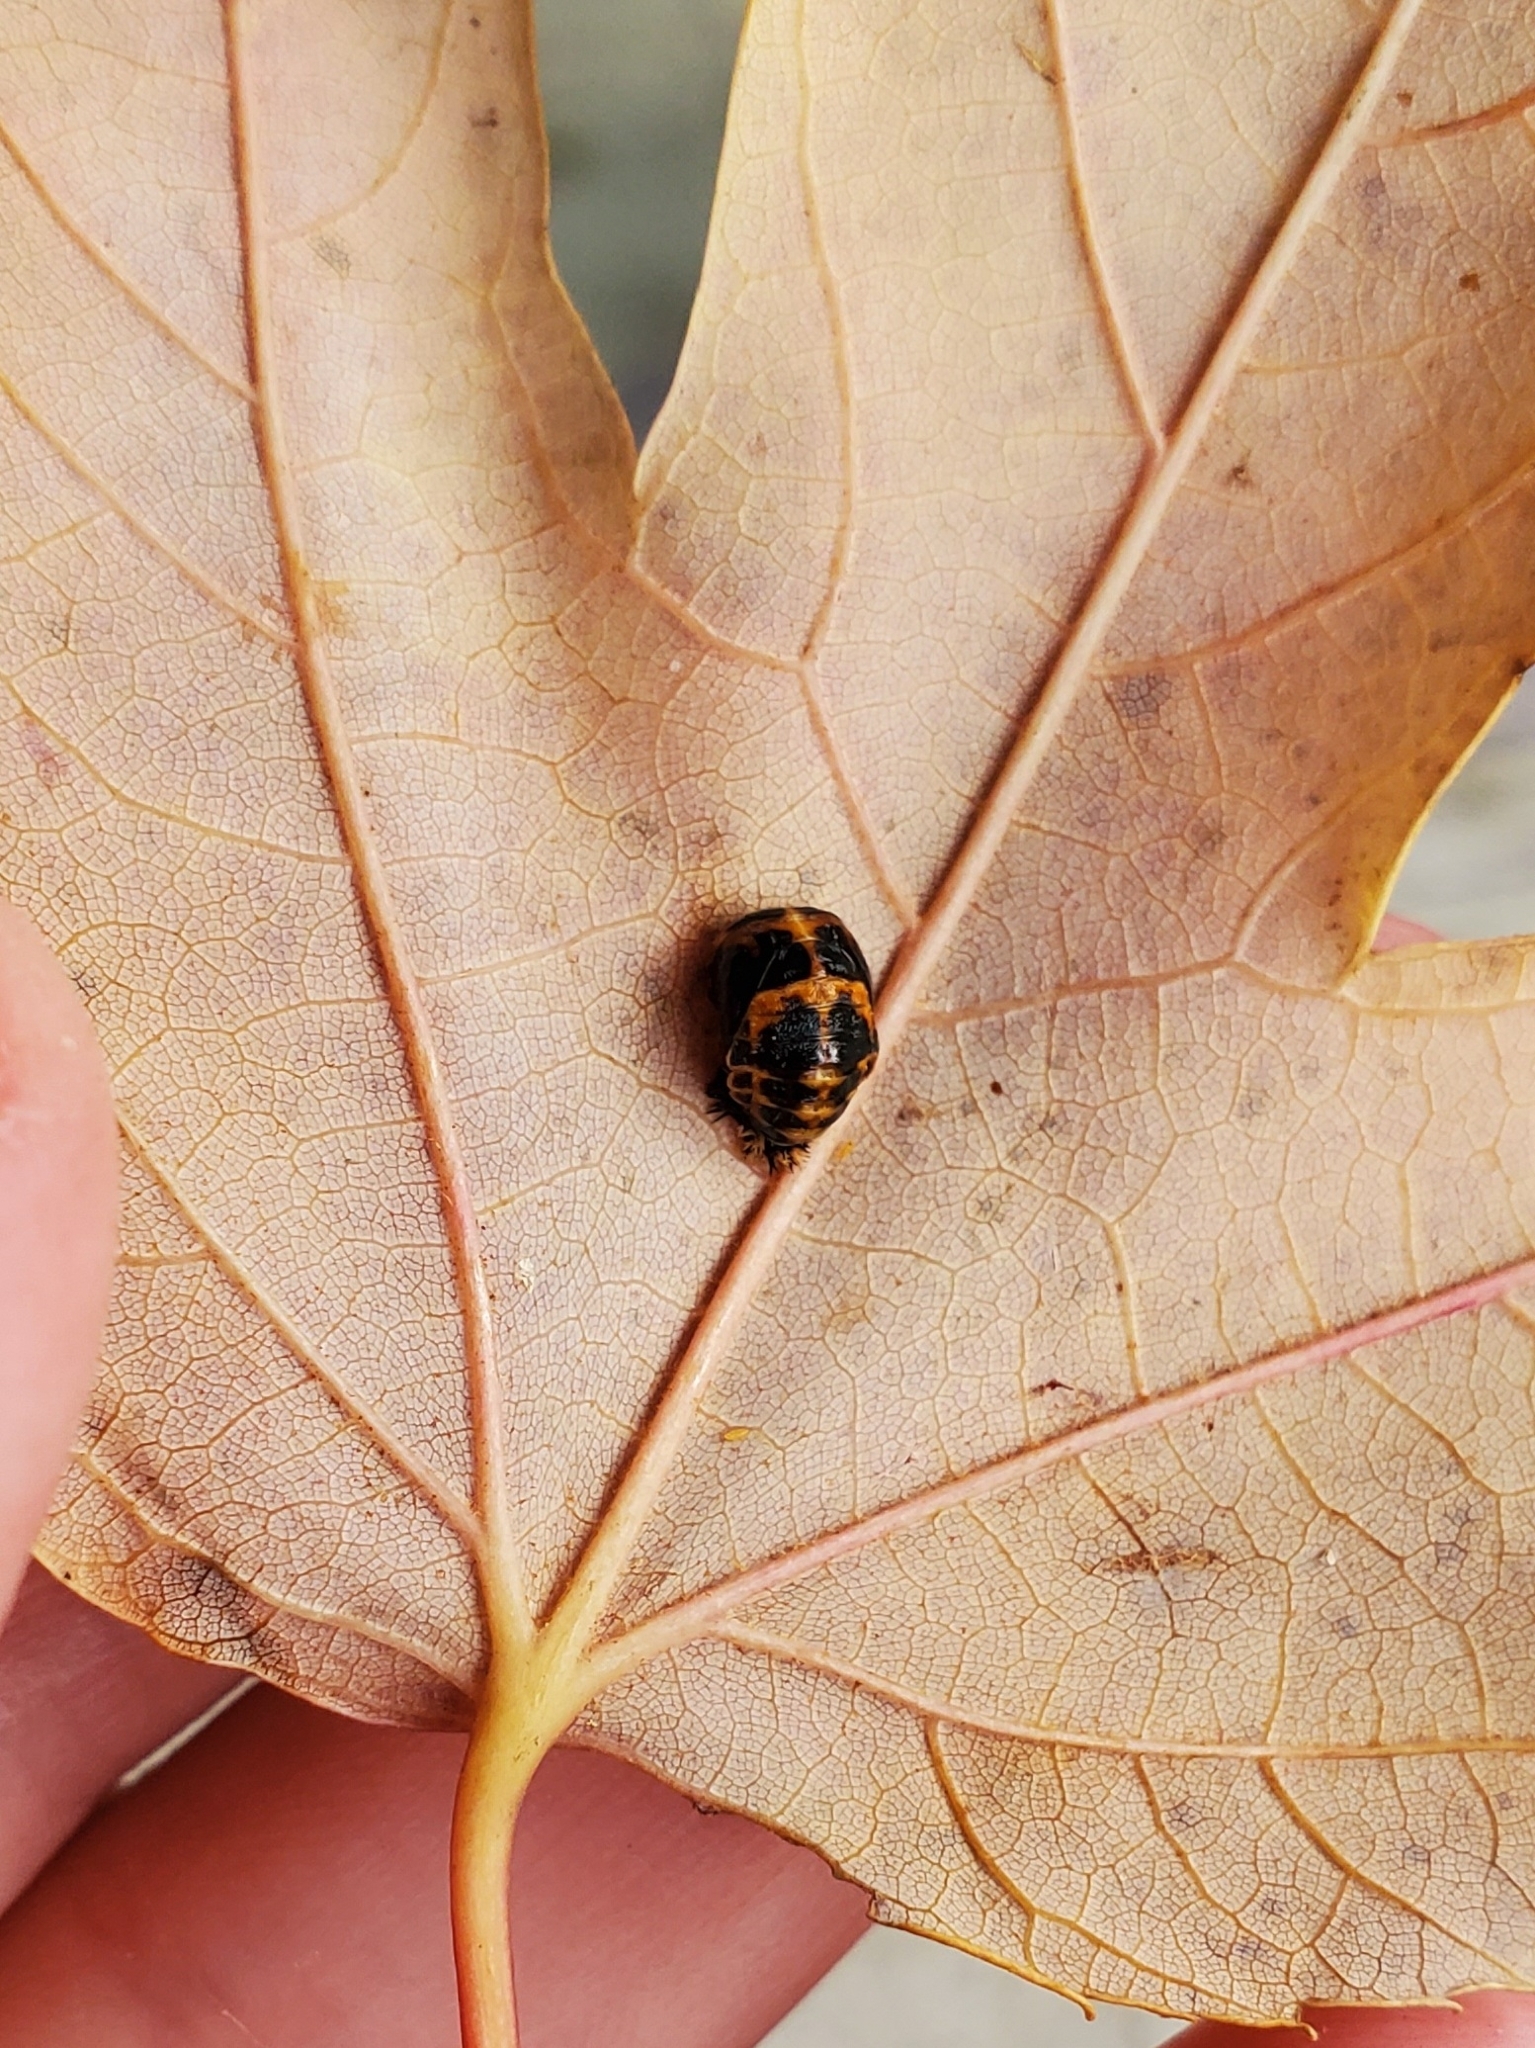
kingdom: Animalia
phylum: Arthropoda
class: Insecta
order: Coleoptera
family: Coccinellidae
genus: Harmonia
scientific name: Harmonia axyridis
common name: Harlequin ladybird
